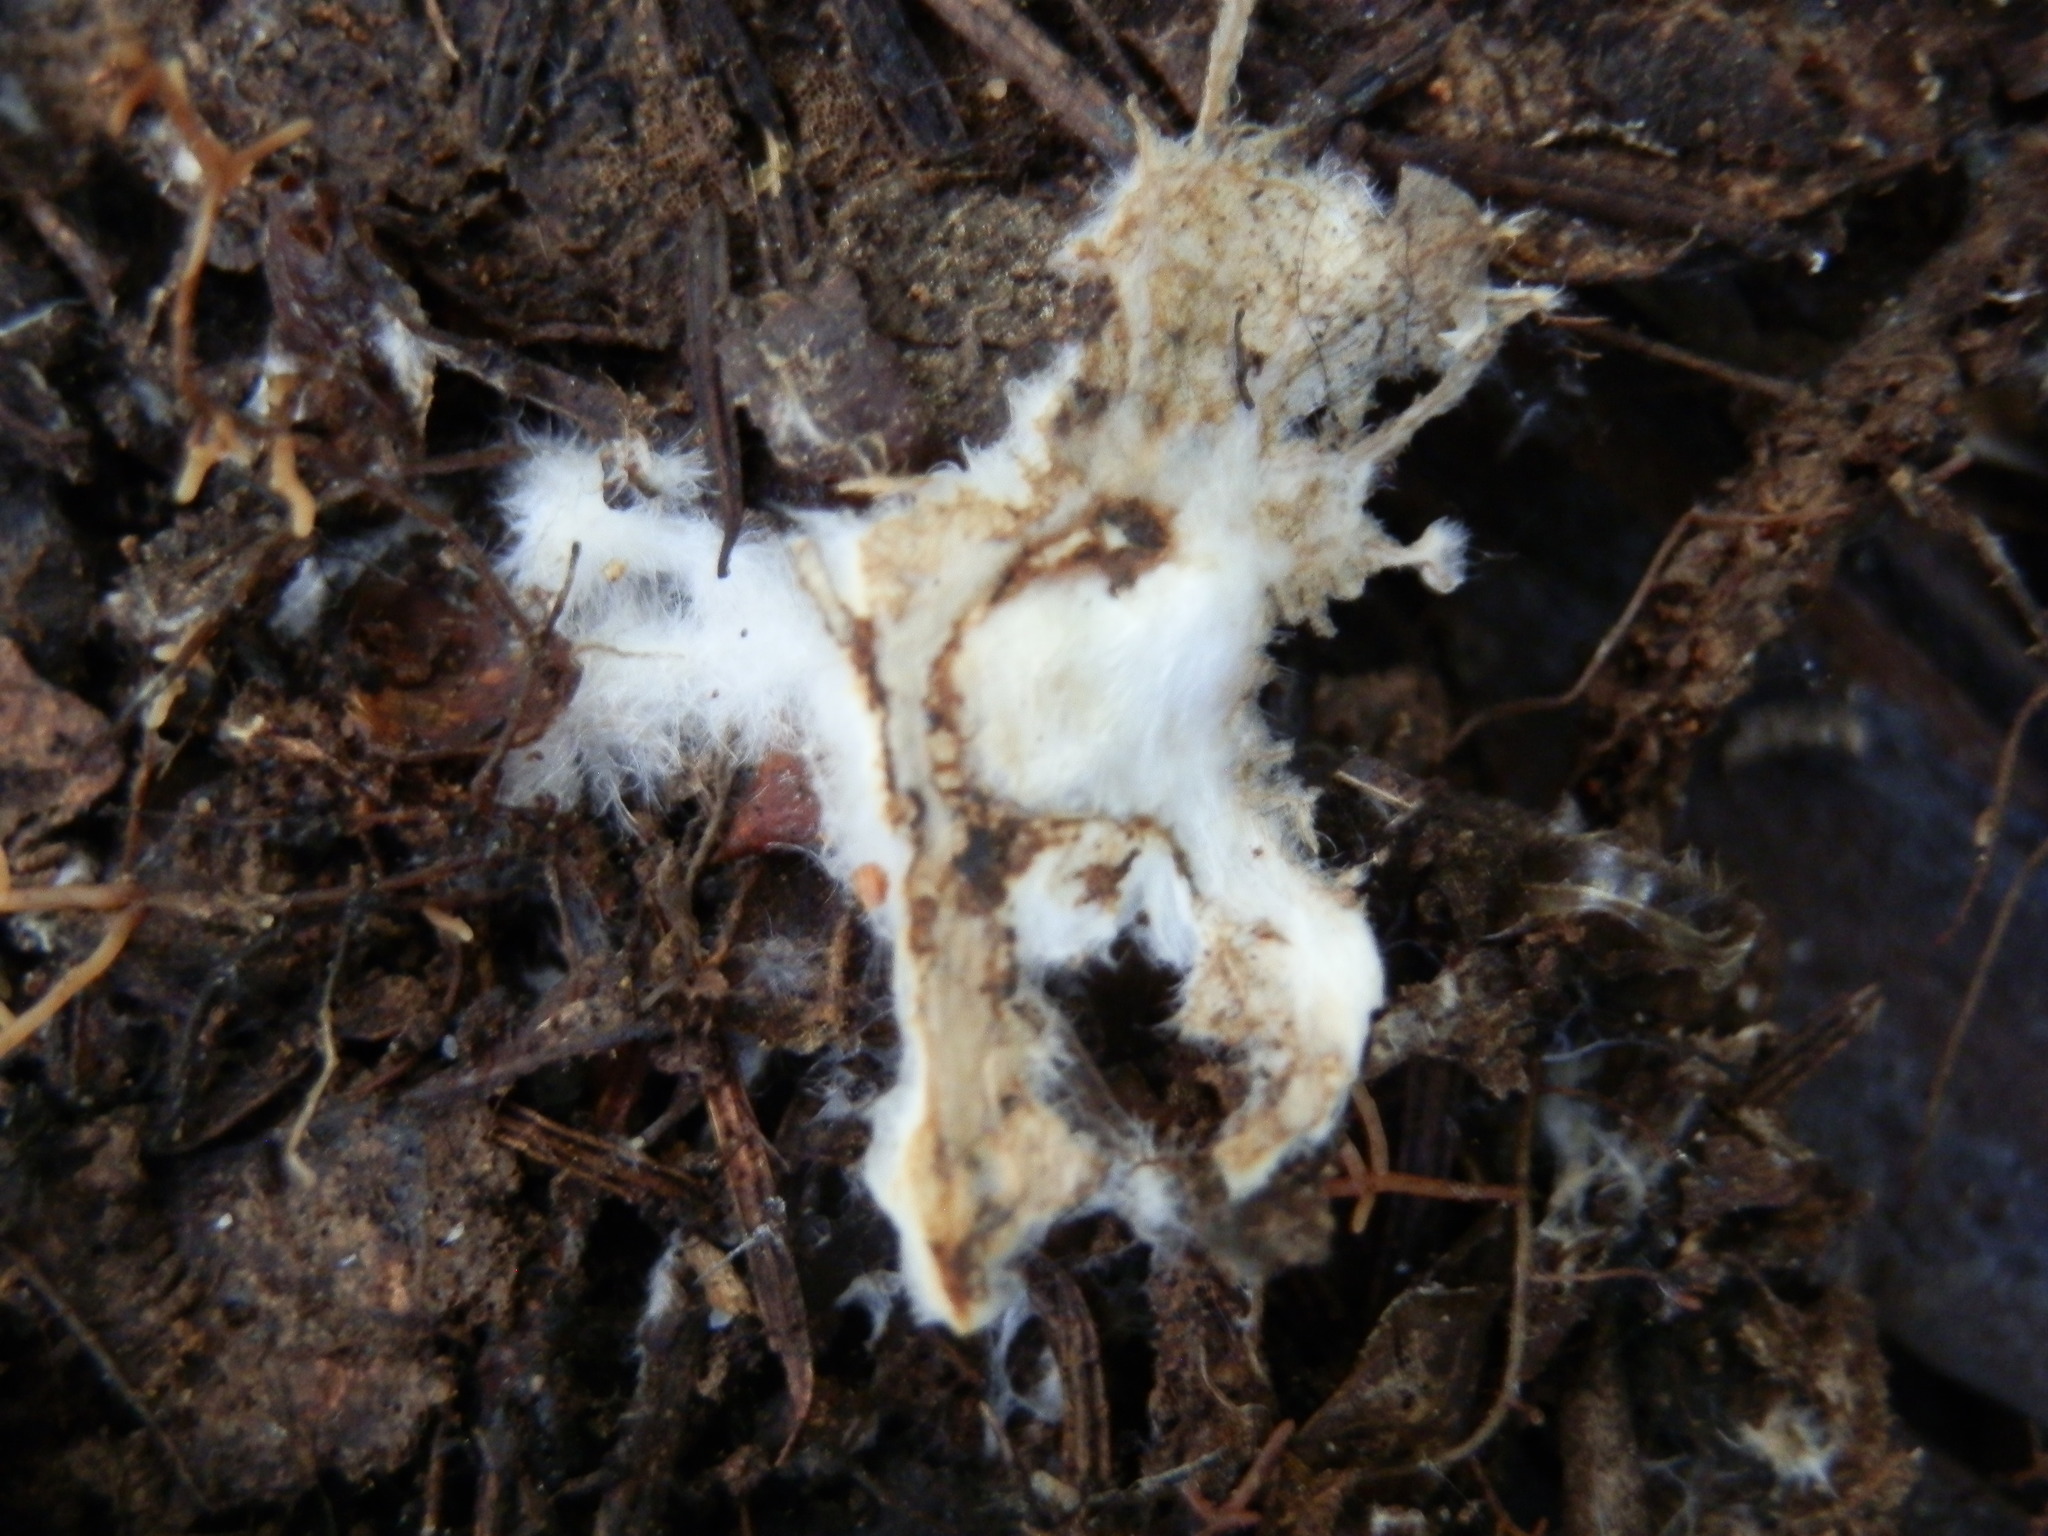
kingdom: Fungi
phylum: Basidiomycota
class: Agaricomycetes
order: Russulales
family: Russulaceae
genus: Russula
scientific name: Russula cremoricolor
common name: Winter russula
